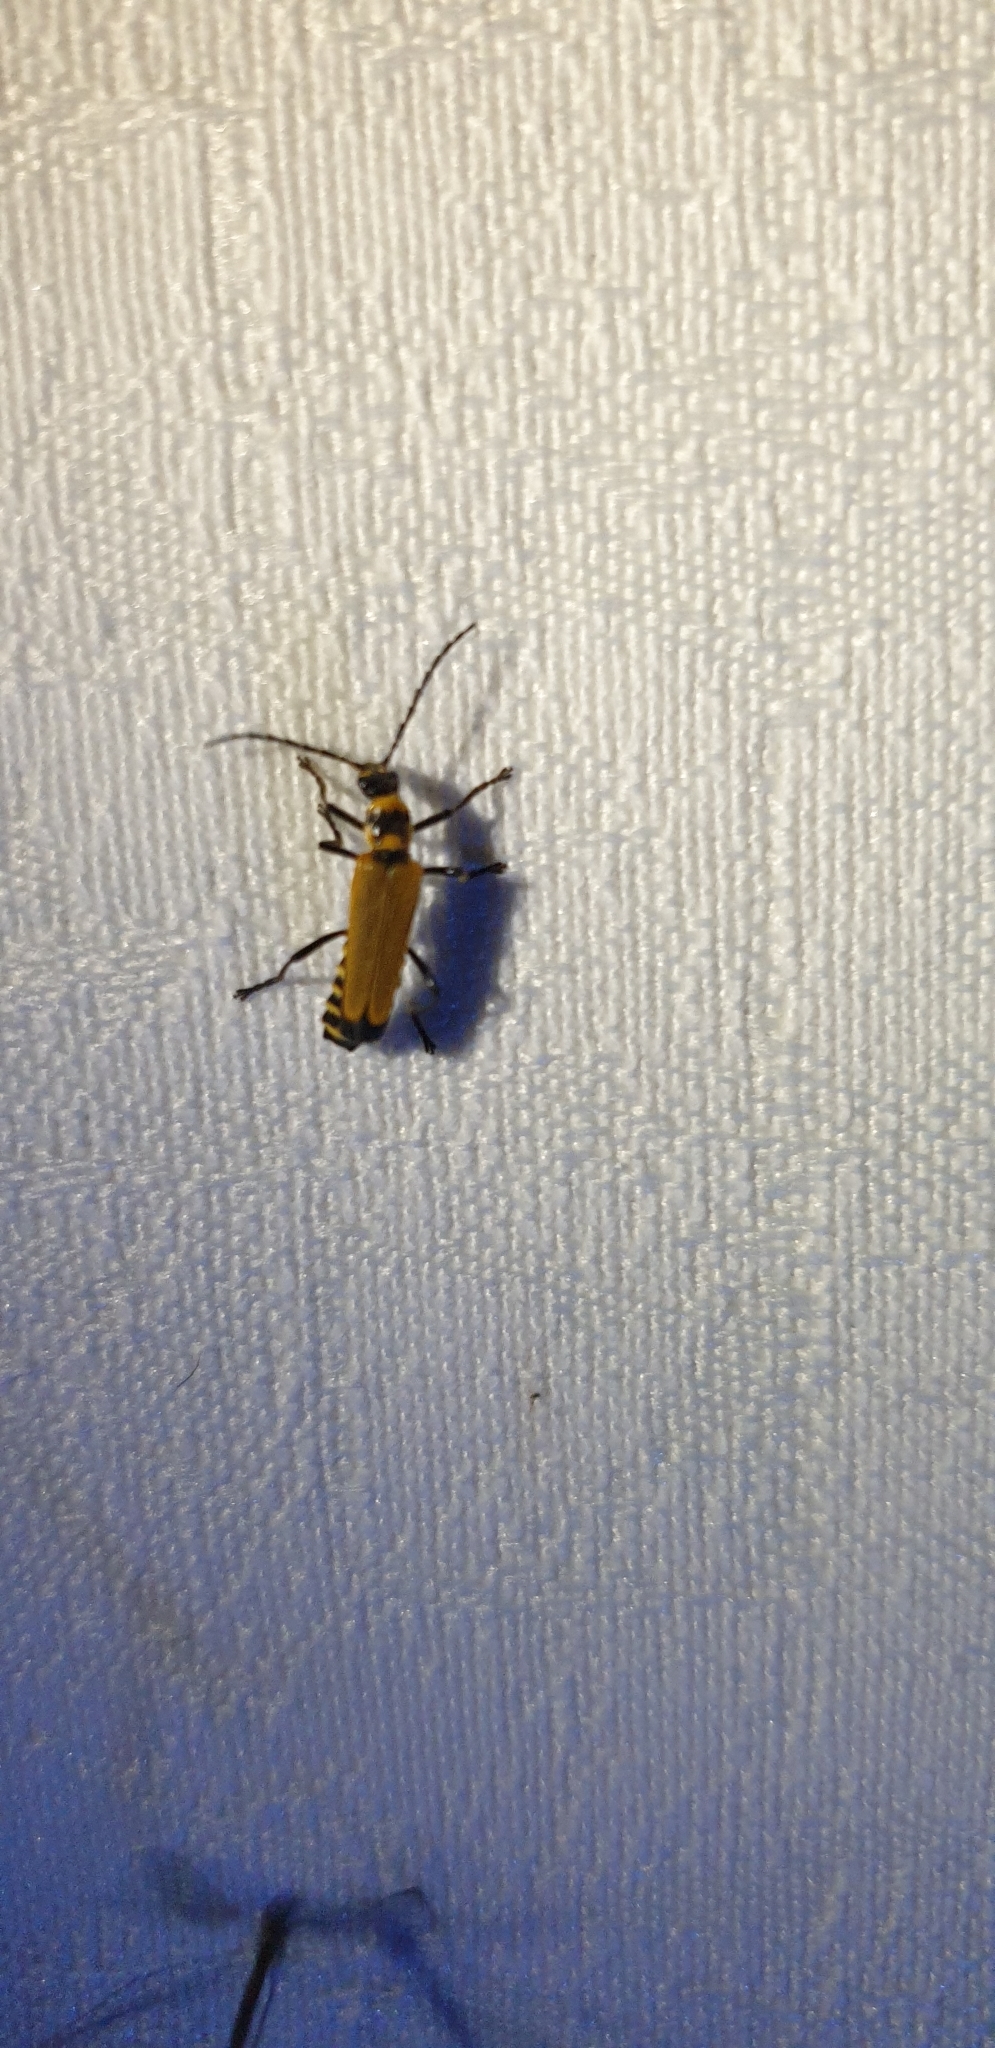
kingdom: Animalia
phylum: Arthropoda
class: Insecta
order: Coleoptera
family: Cantharidae
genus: Chauliognathus
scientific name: Chauliognathus
